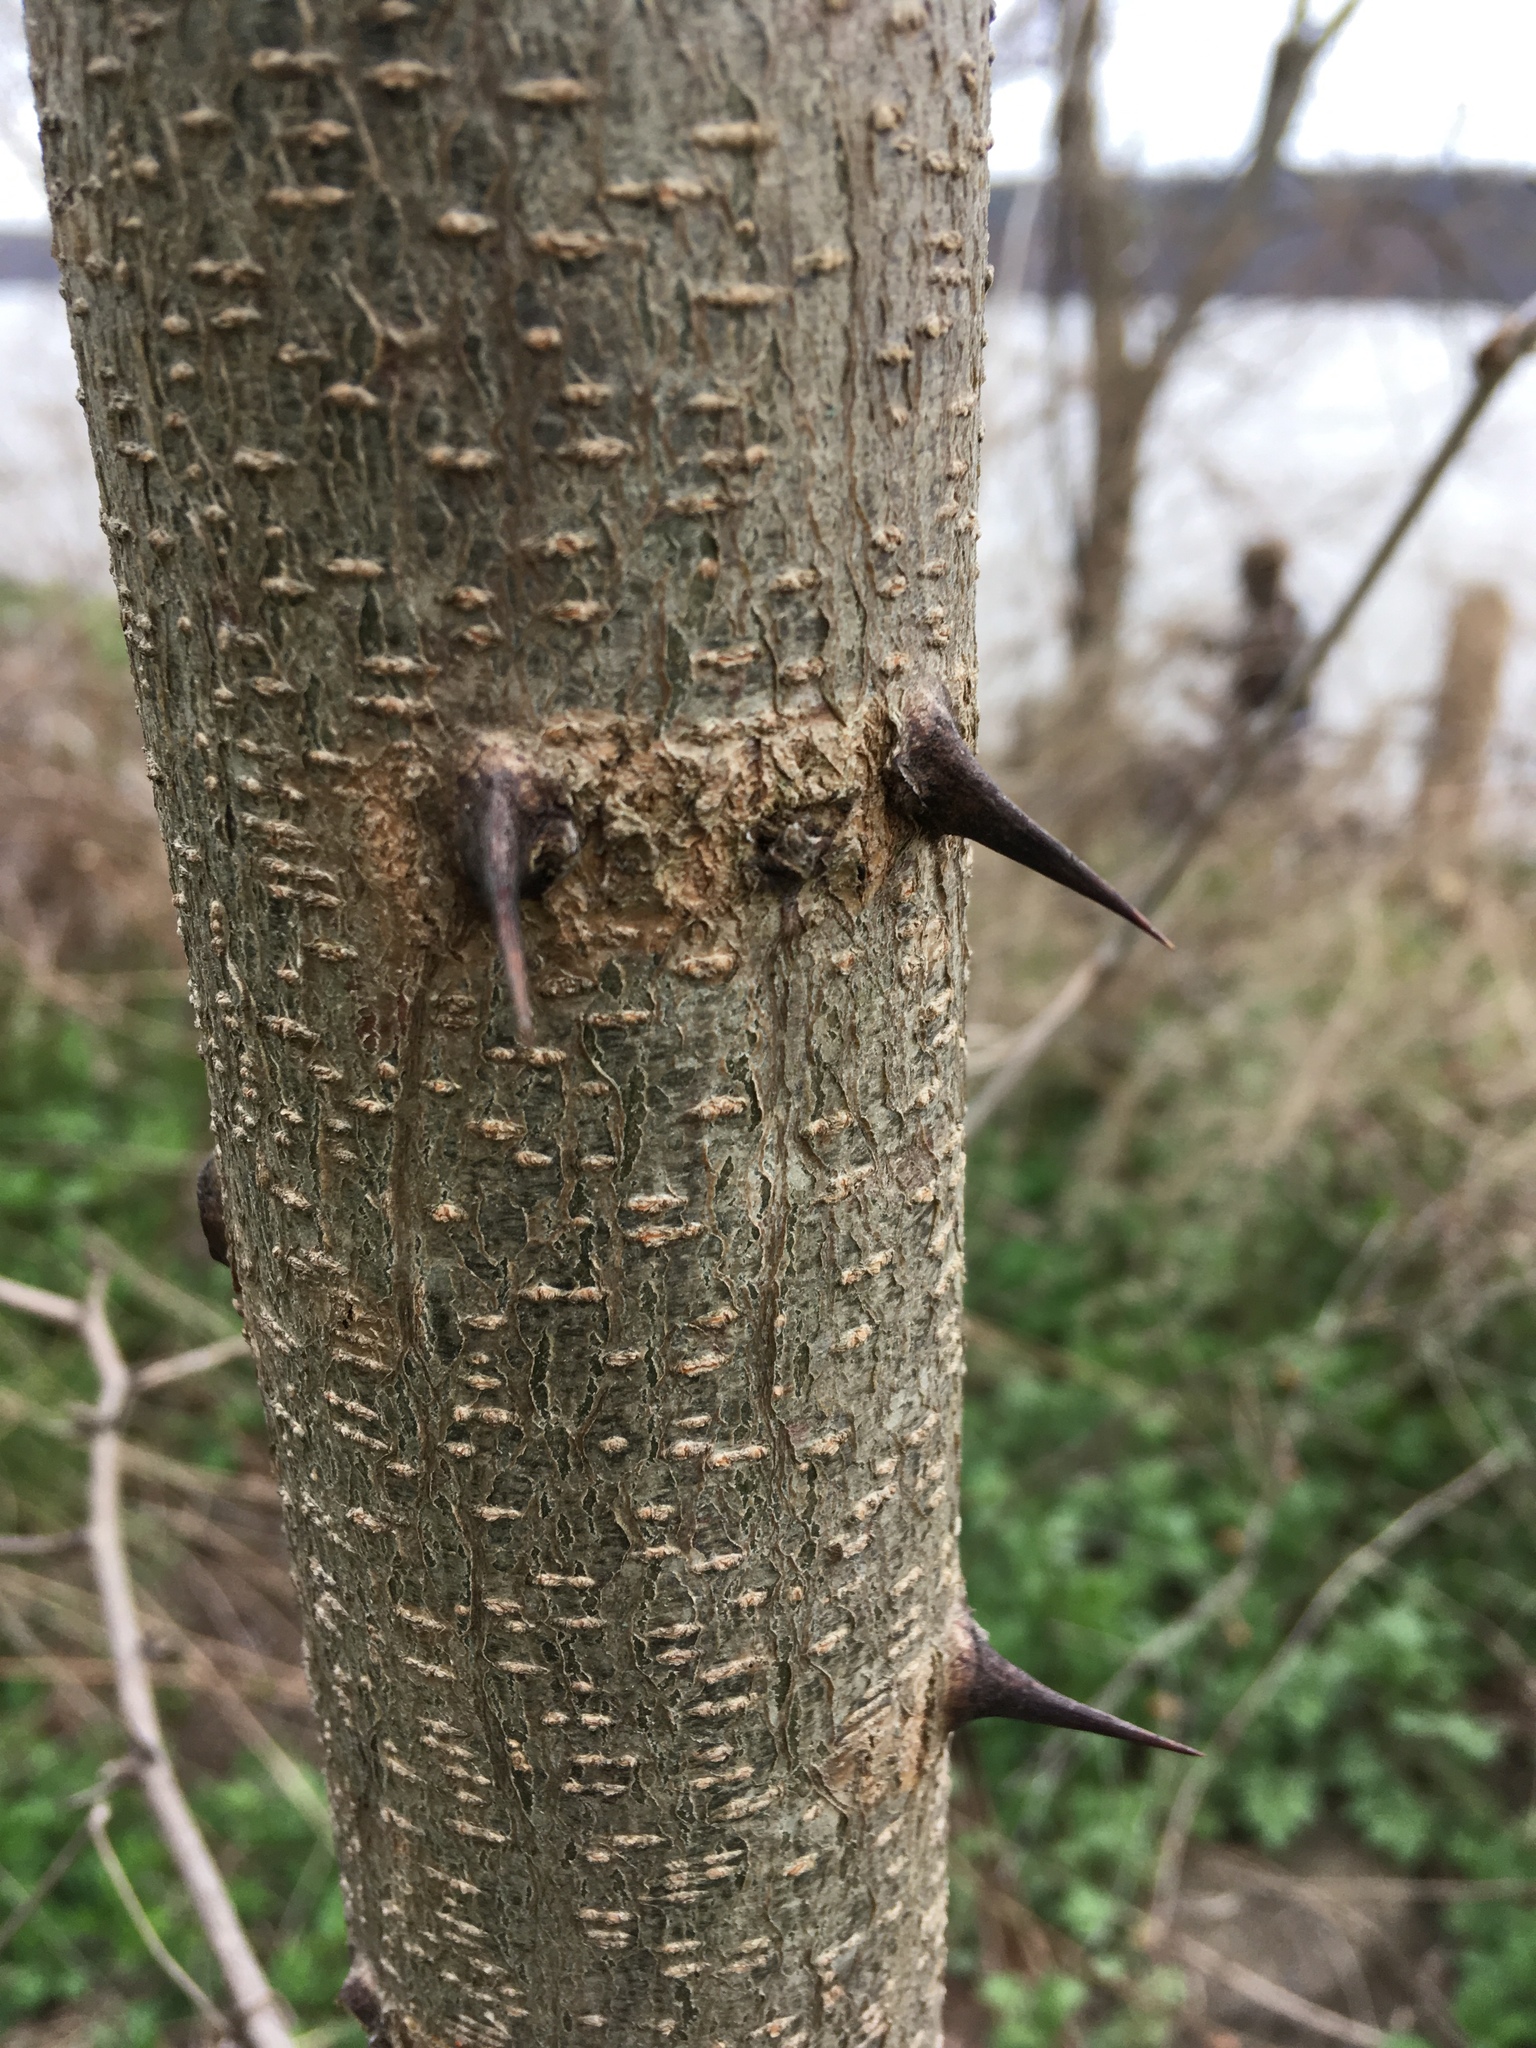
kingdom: Plantae
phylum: Tracheophyta
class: Magnoliopsida
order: Fabales
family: Fabaceae
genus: Robinia
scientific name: Robinia pseudoacacia
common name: Black locust
